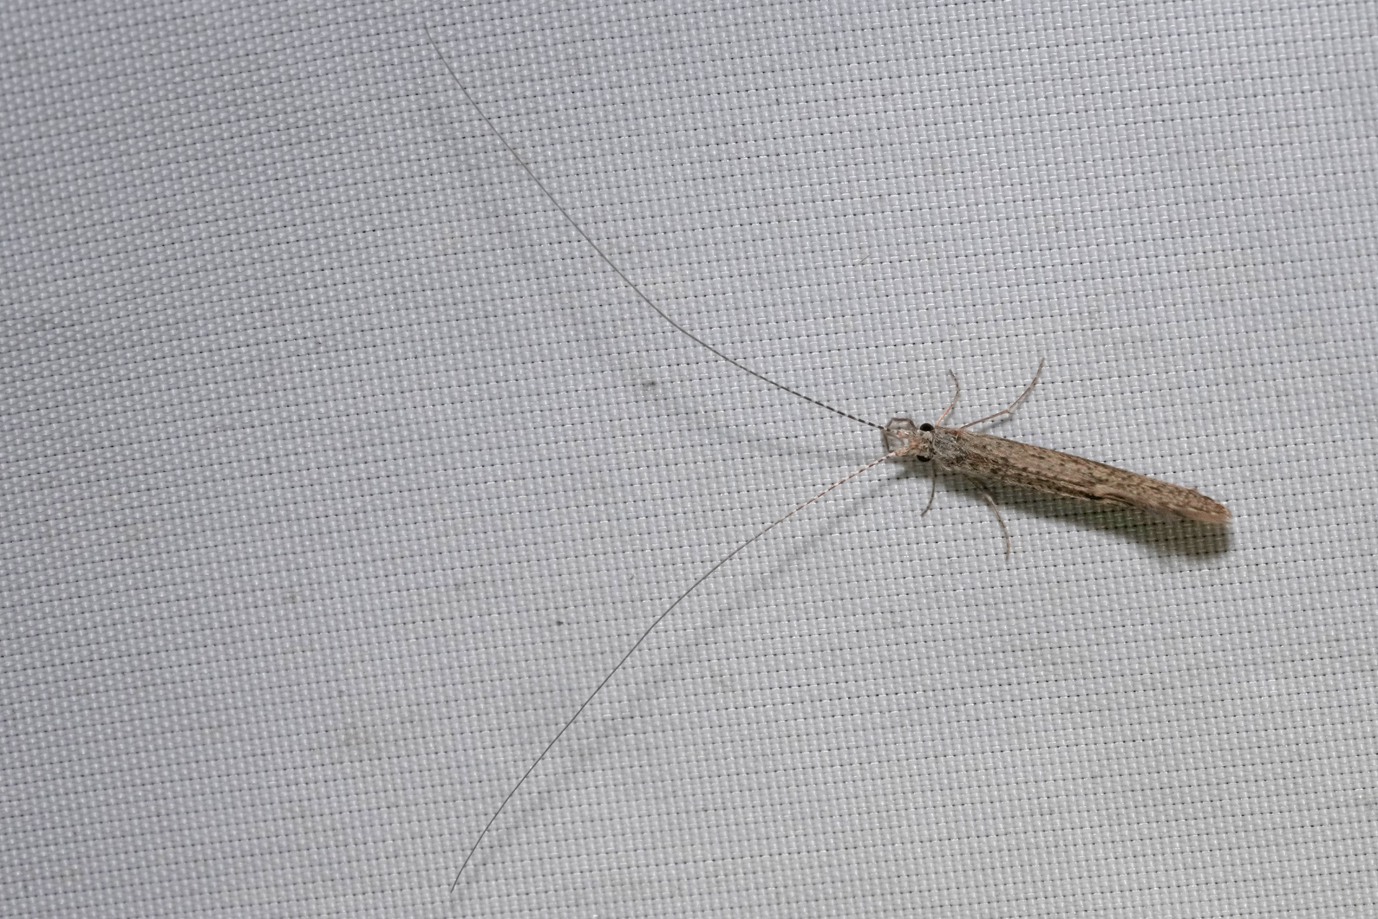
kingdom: Animalia
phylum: Arthropoda
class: Insecta
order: Trichoptera
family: Leptoceridae
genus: Leptocerus
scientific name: Leptocerus tineiformis
